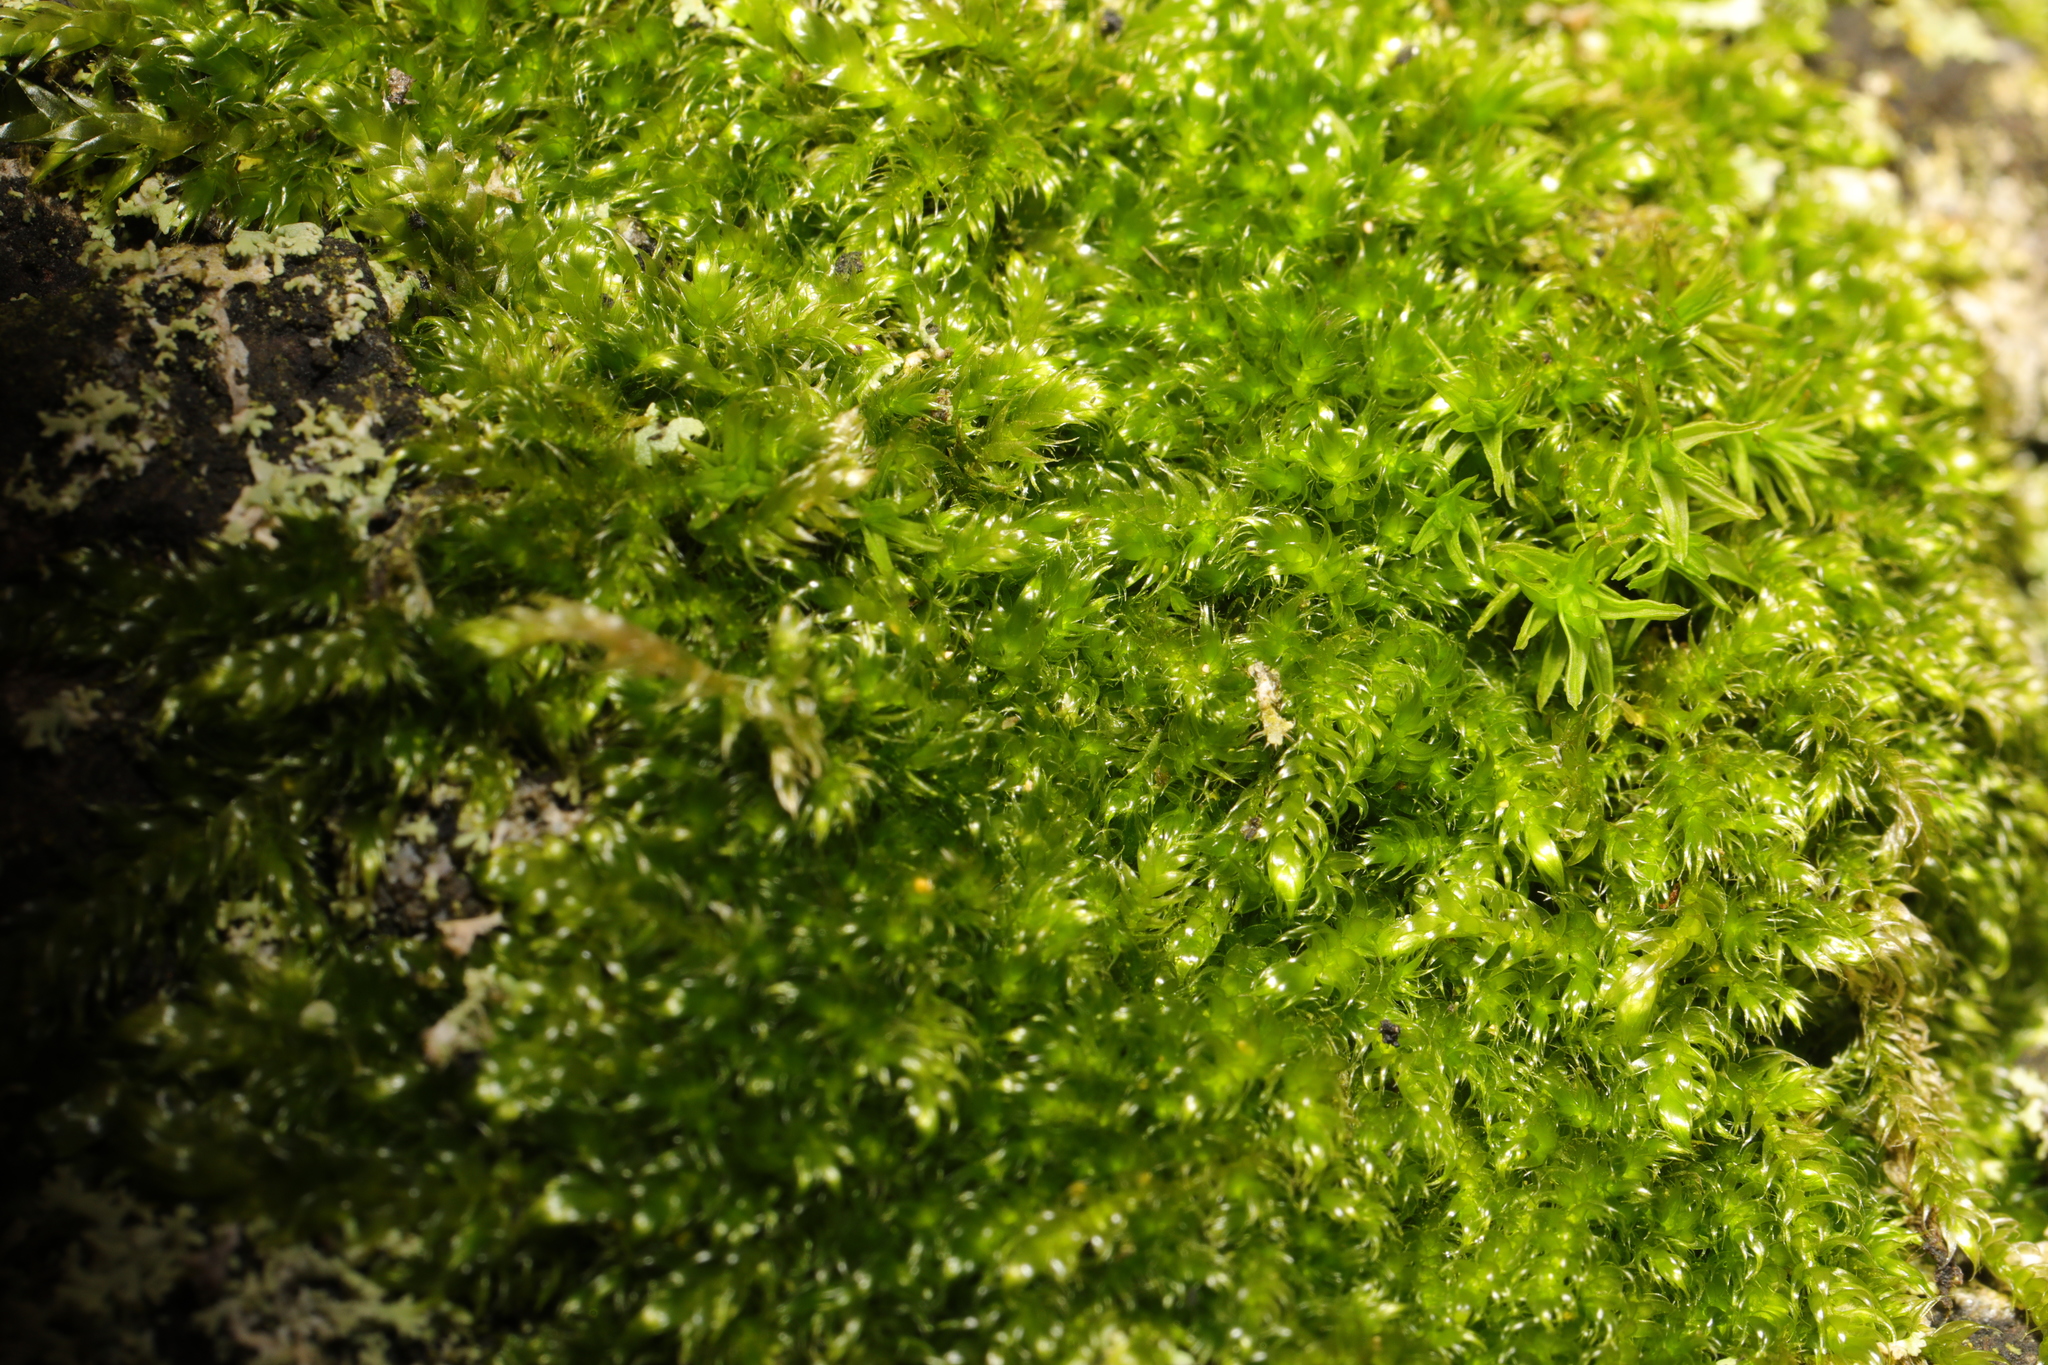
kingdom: Plantae
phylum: Bryophyta
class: Bryopsida
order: Hypnales
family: Hypnaceae
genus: Hypnum
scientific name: Hypnum cupressiforme
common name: Cypress-leaved plait-moss
